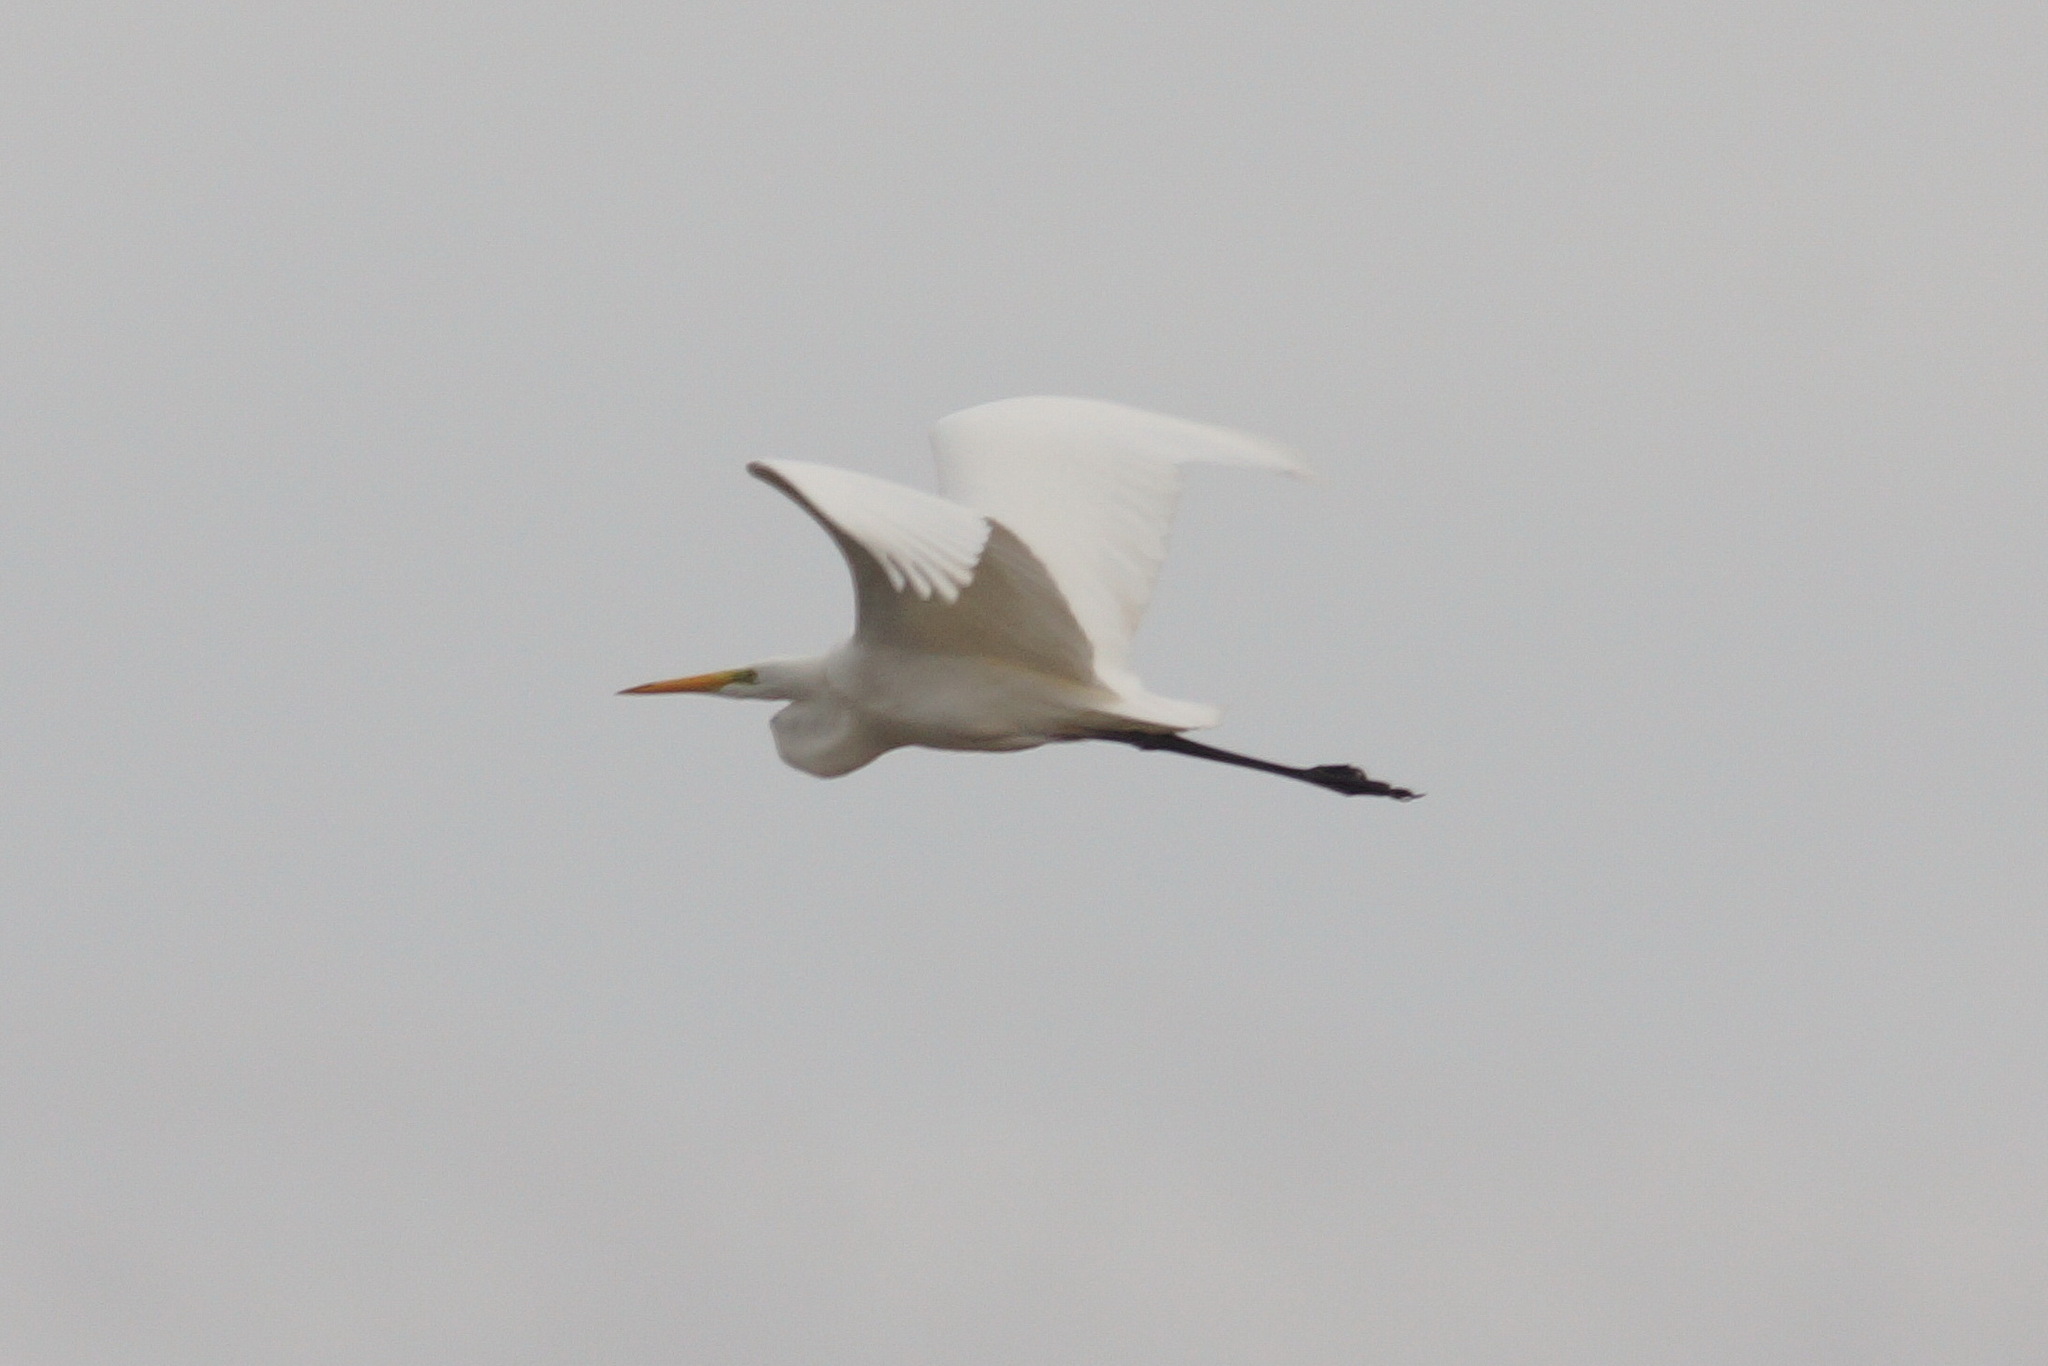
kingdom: Animalia
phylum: Chordata
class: Aves
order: Pelecaniformes
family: Ardeidae
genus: Ardea
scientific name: Ardea alba
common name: Great egret
